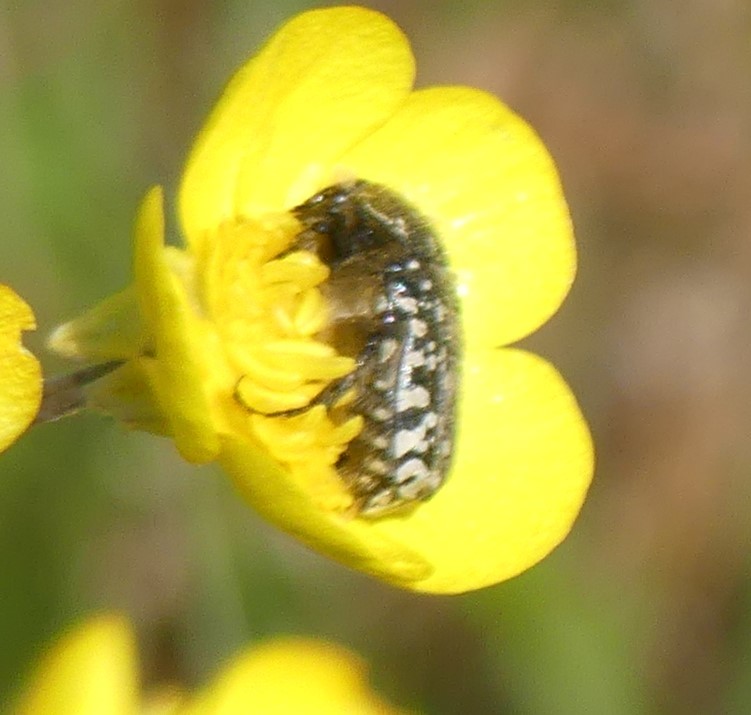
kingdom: Animalia
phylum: Arthropoda
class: Insecta
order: Coleoptera
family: Scarabaeidae
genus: Oxythyrea
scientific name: Oxythyrea funesta
